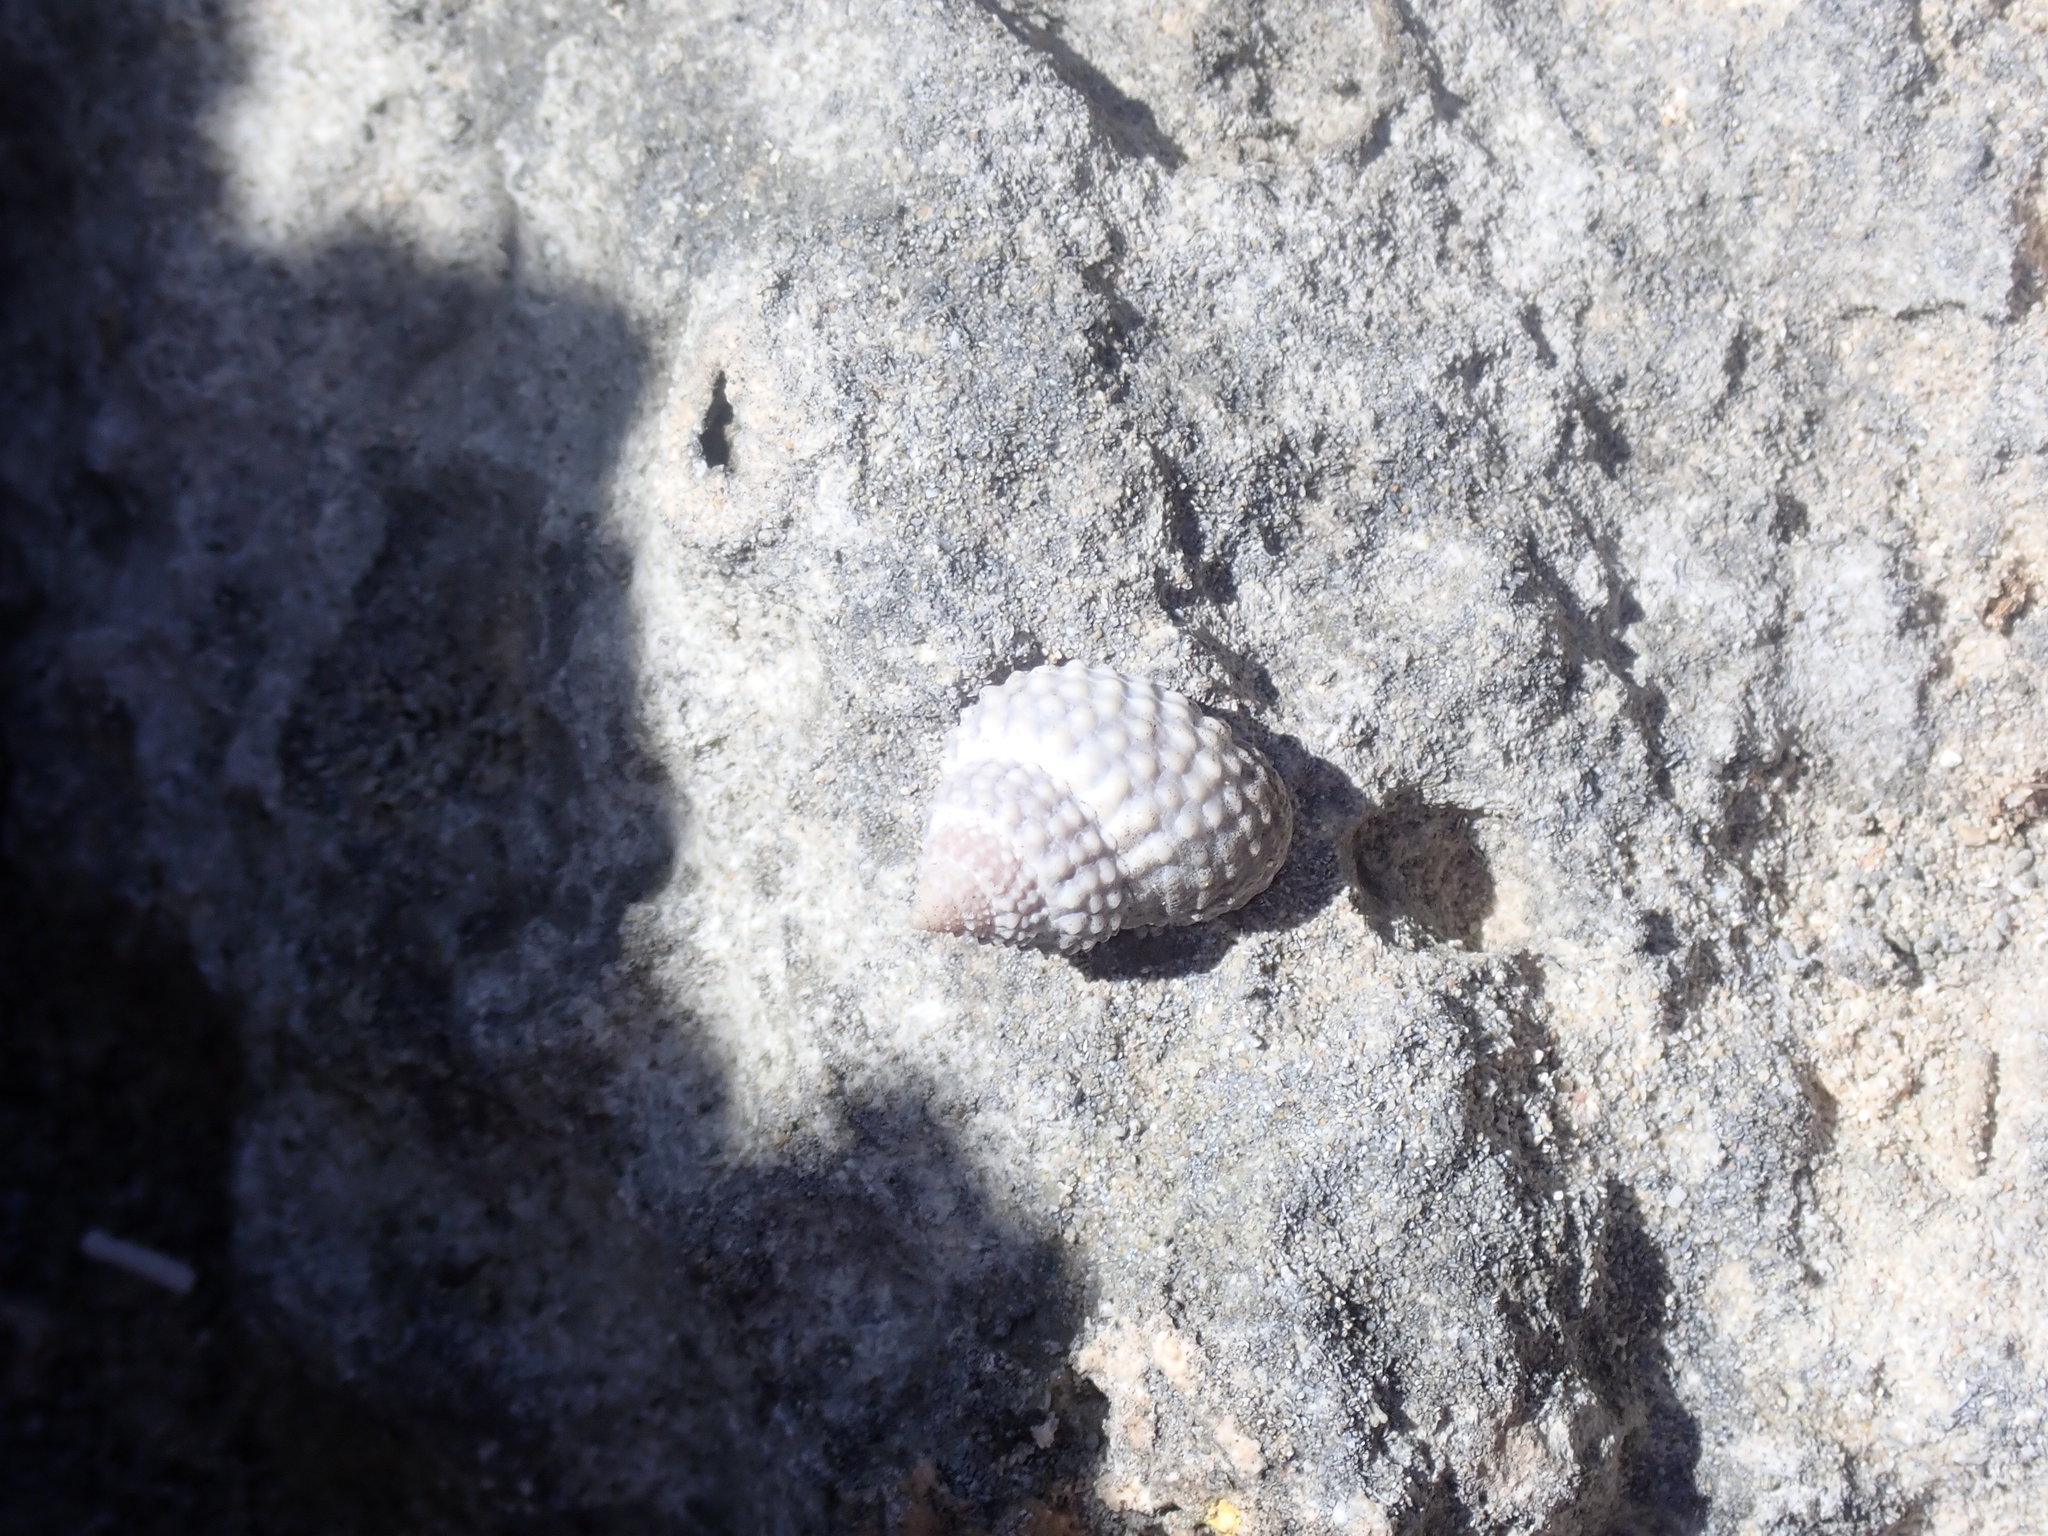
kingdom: Animalia
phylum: Mollusca
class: Gastropoda
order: Littorinimorpha
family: Littorinidae
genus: Cenchritis
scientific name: Cenchritis muricatus
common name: Beaded periwinkle
